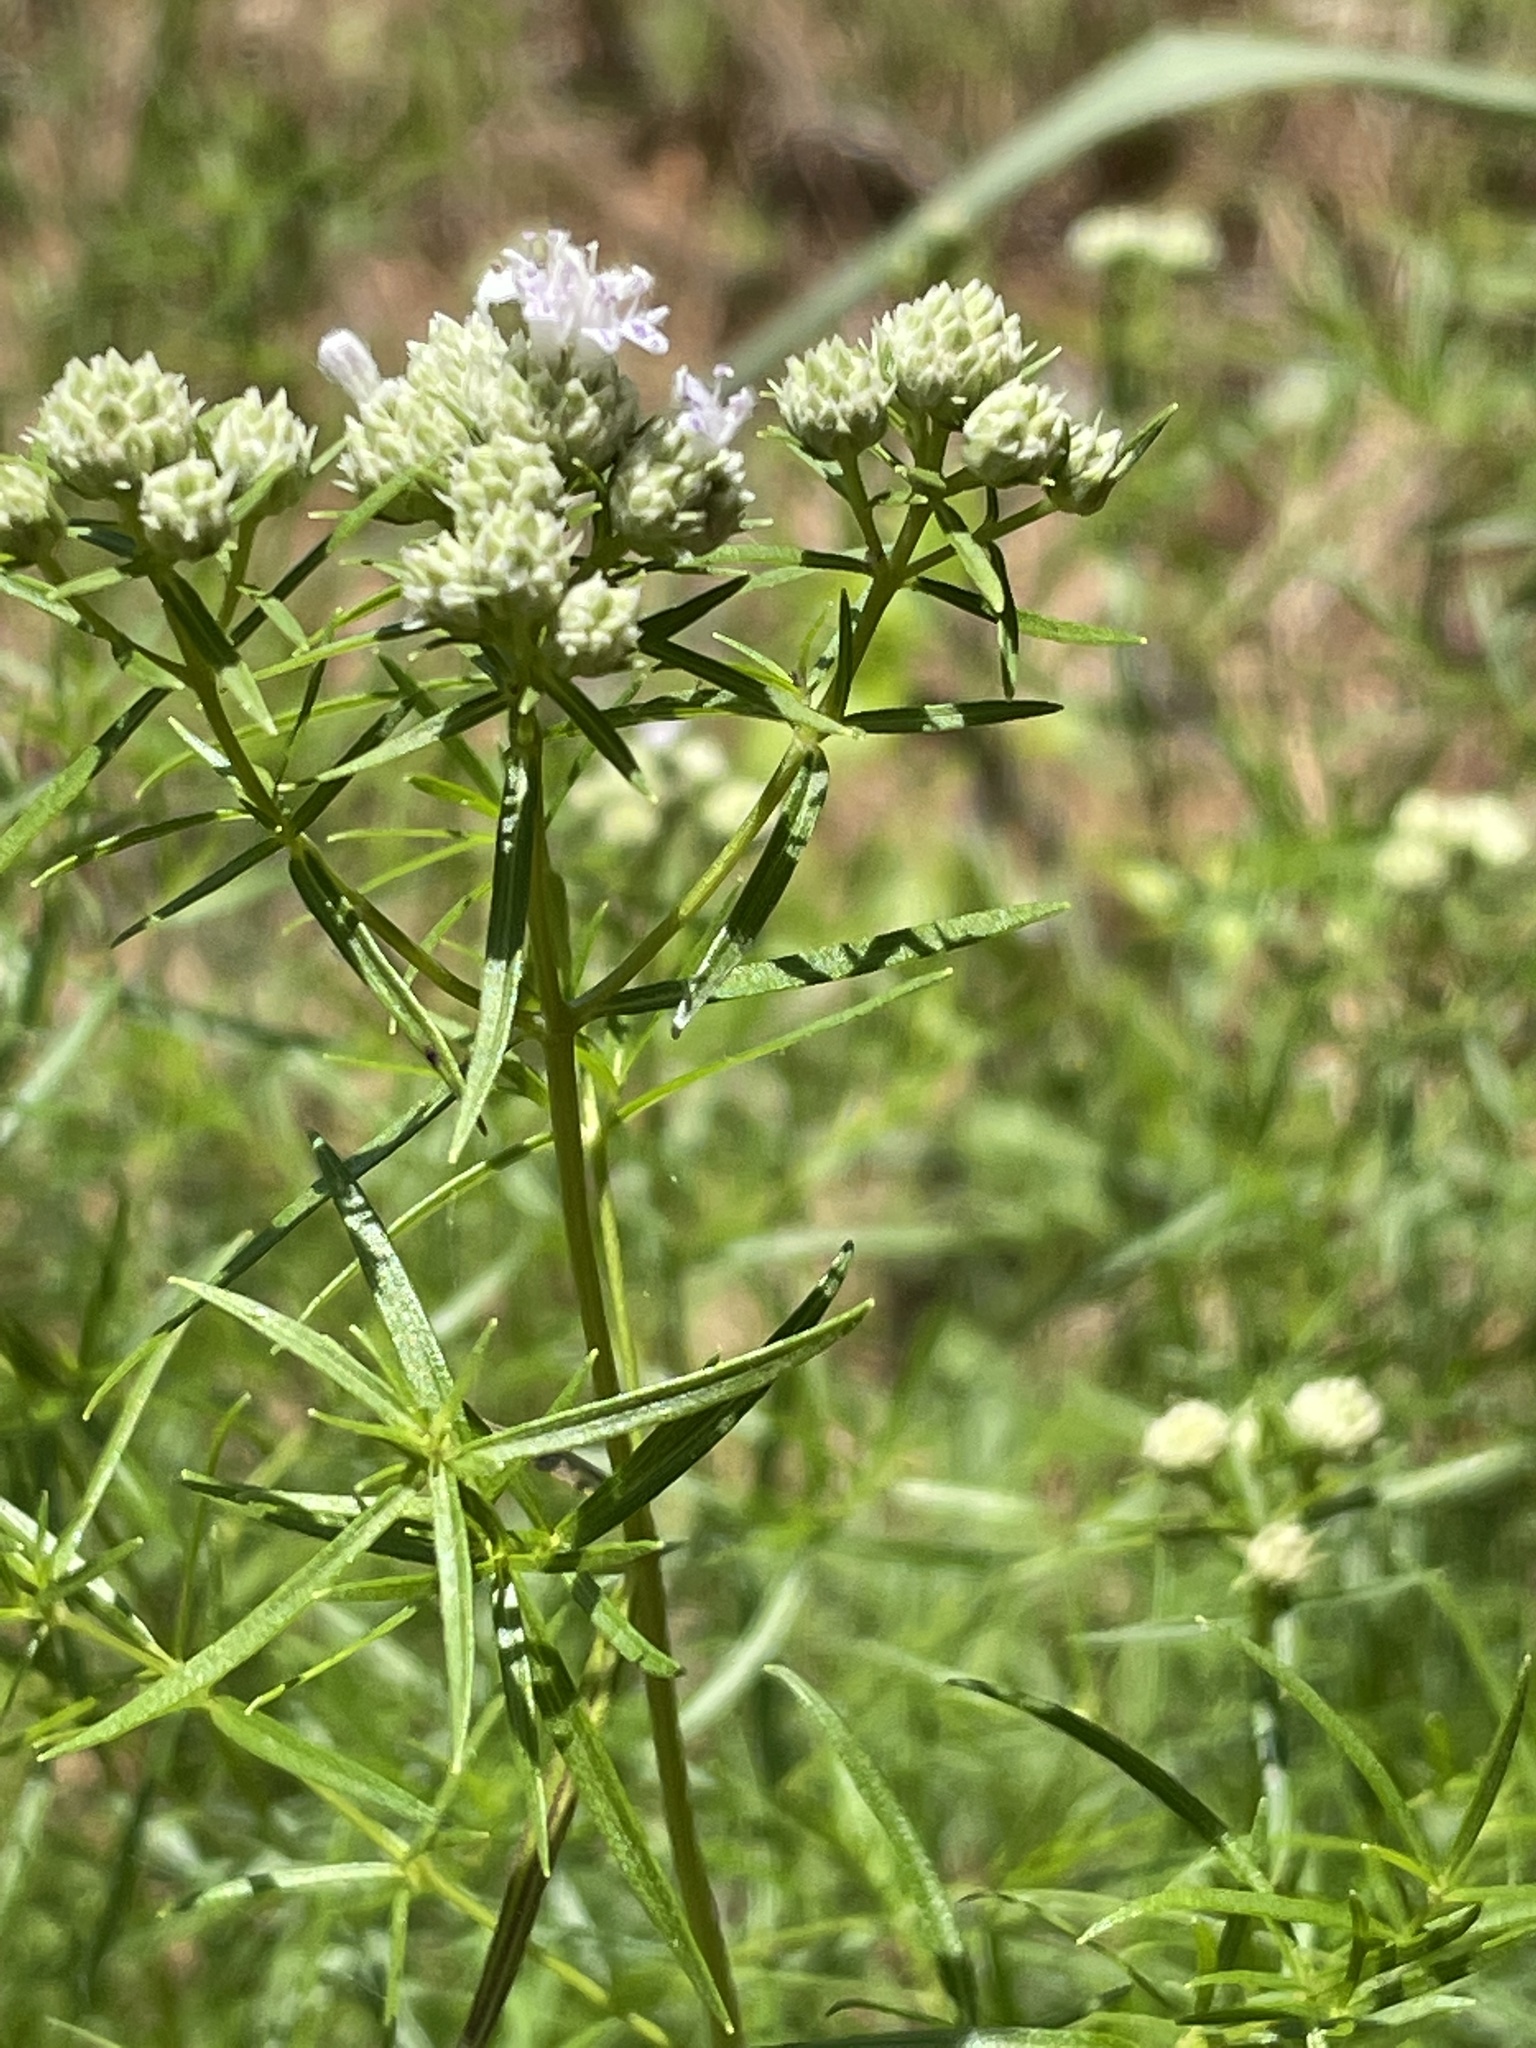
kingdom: Plantae
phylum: Tracheophyta
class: Magnoliopsida
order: Lamiales
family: Lamiaceae
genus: Pycnanthemum
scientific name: Pycnanthemum tenuifolium
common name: Narrow-leaf mountain-mint
